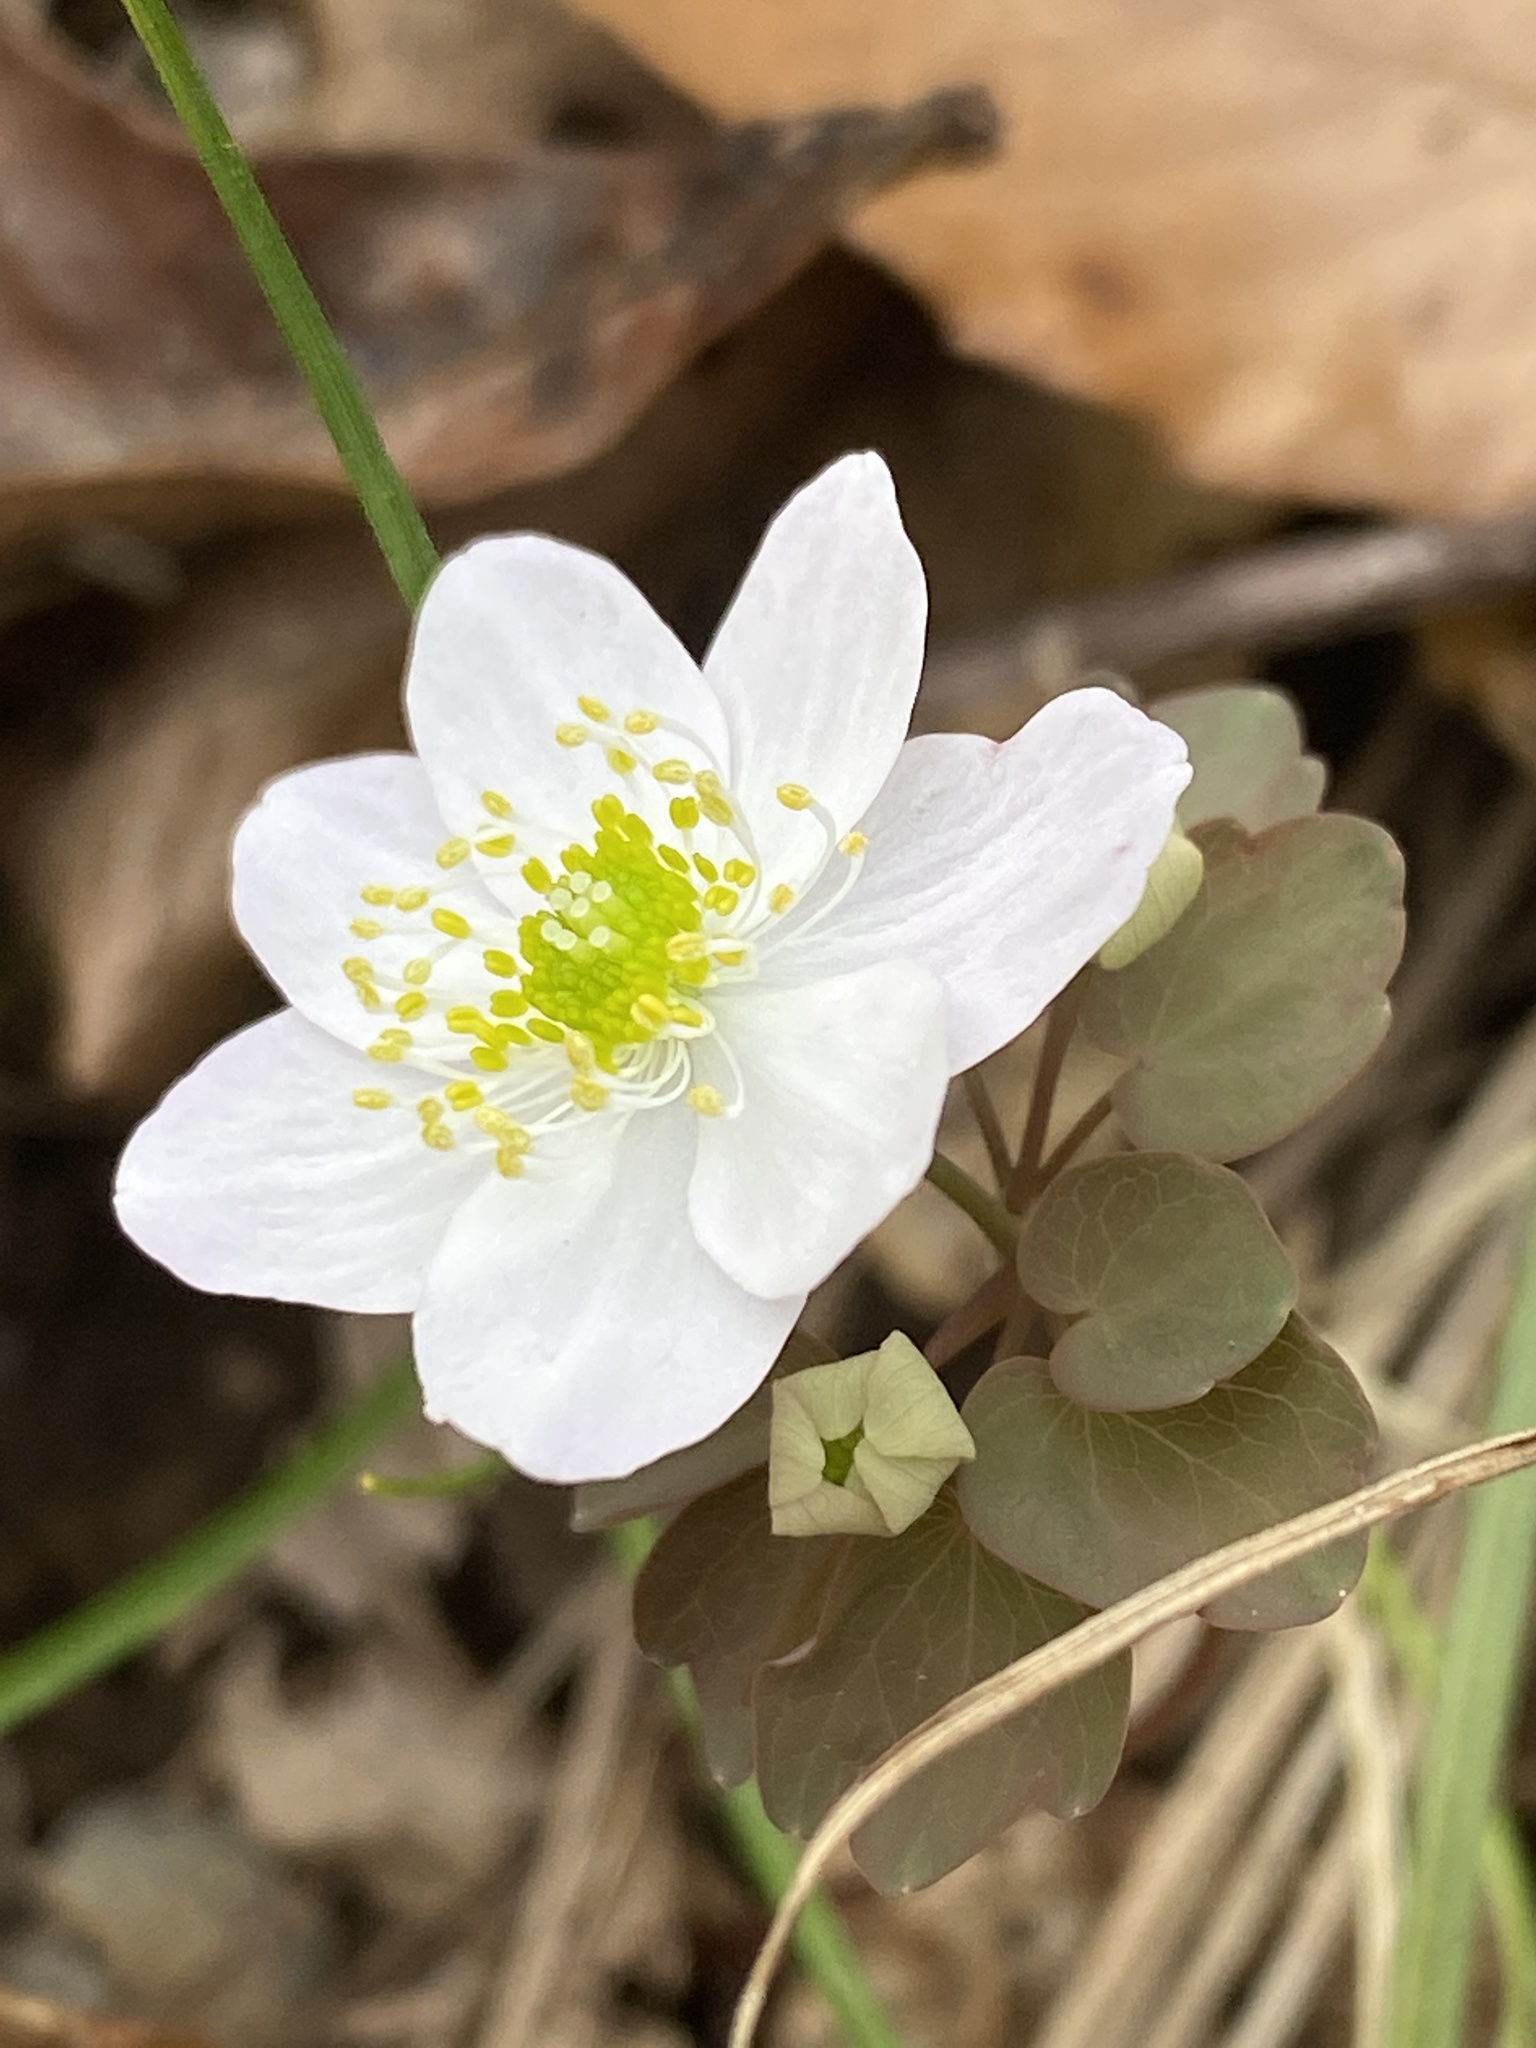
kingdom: Plantae
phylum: Tracheophyta
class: Magnoliopsida
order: Ranunculales
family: Ranunculaceae
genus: Thalictrum
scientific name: Thalictrum thalictroides
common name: Rue-anemone
